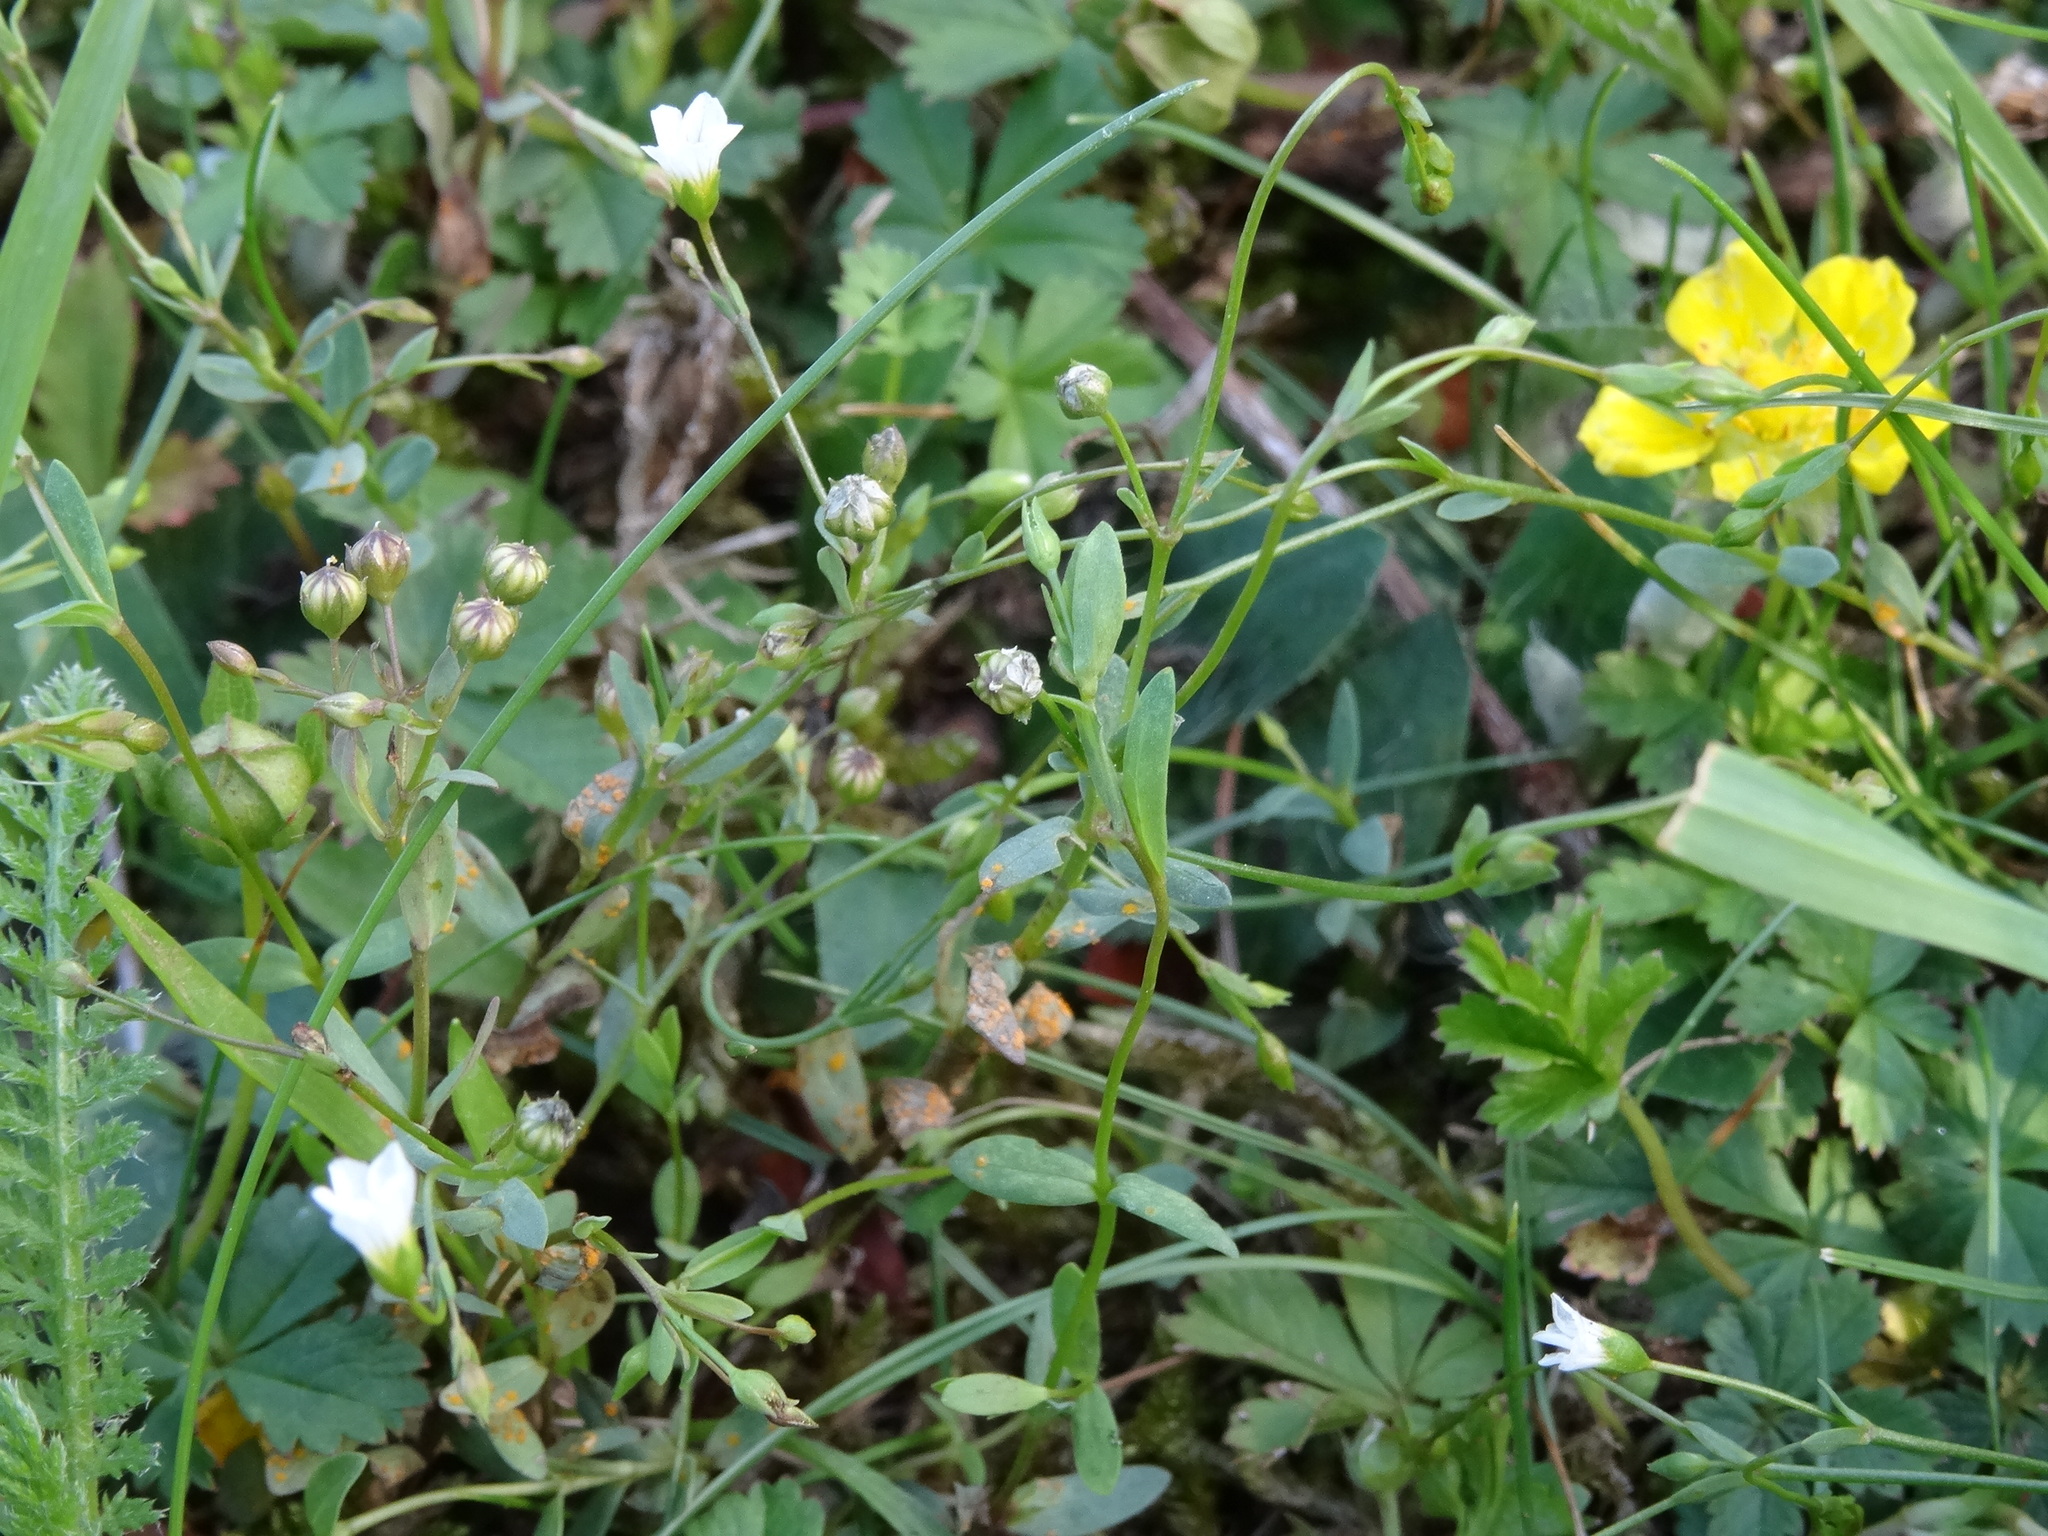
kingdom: Plantae
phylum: Tracheophyta
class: Magnoliopsida
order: Malpighiales
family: Linaceae
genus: Linum
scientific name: Linum catharticum
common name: Fairy flax
